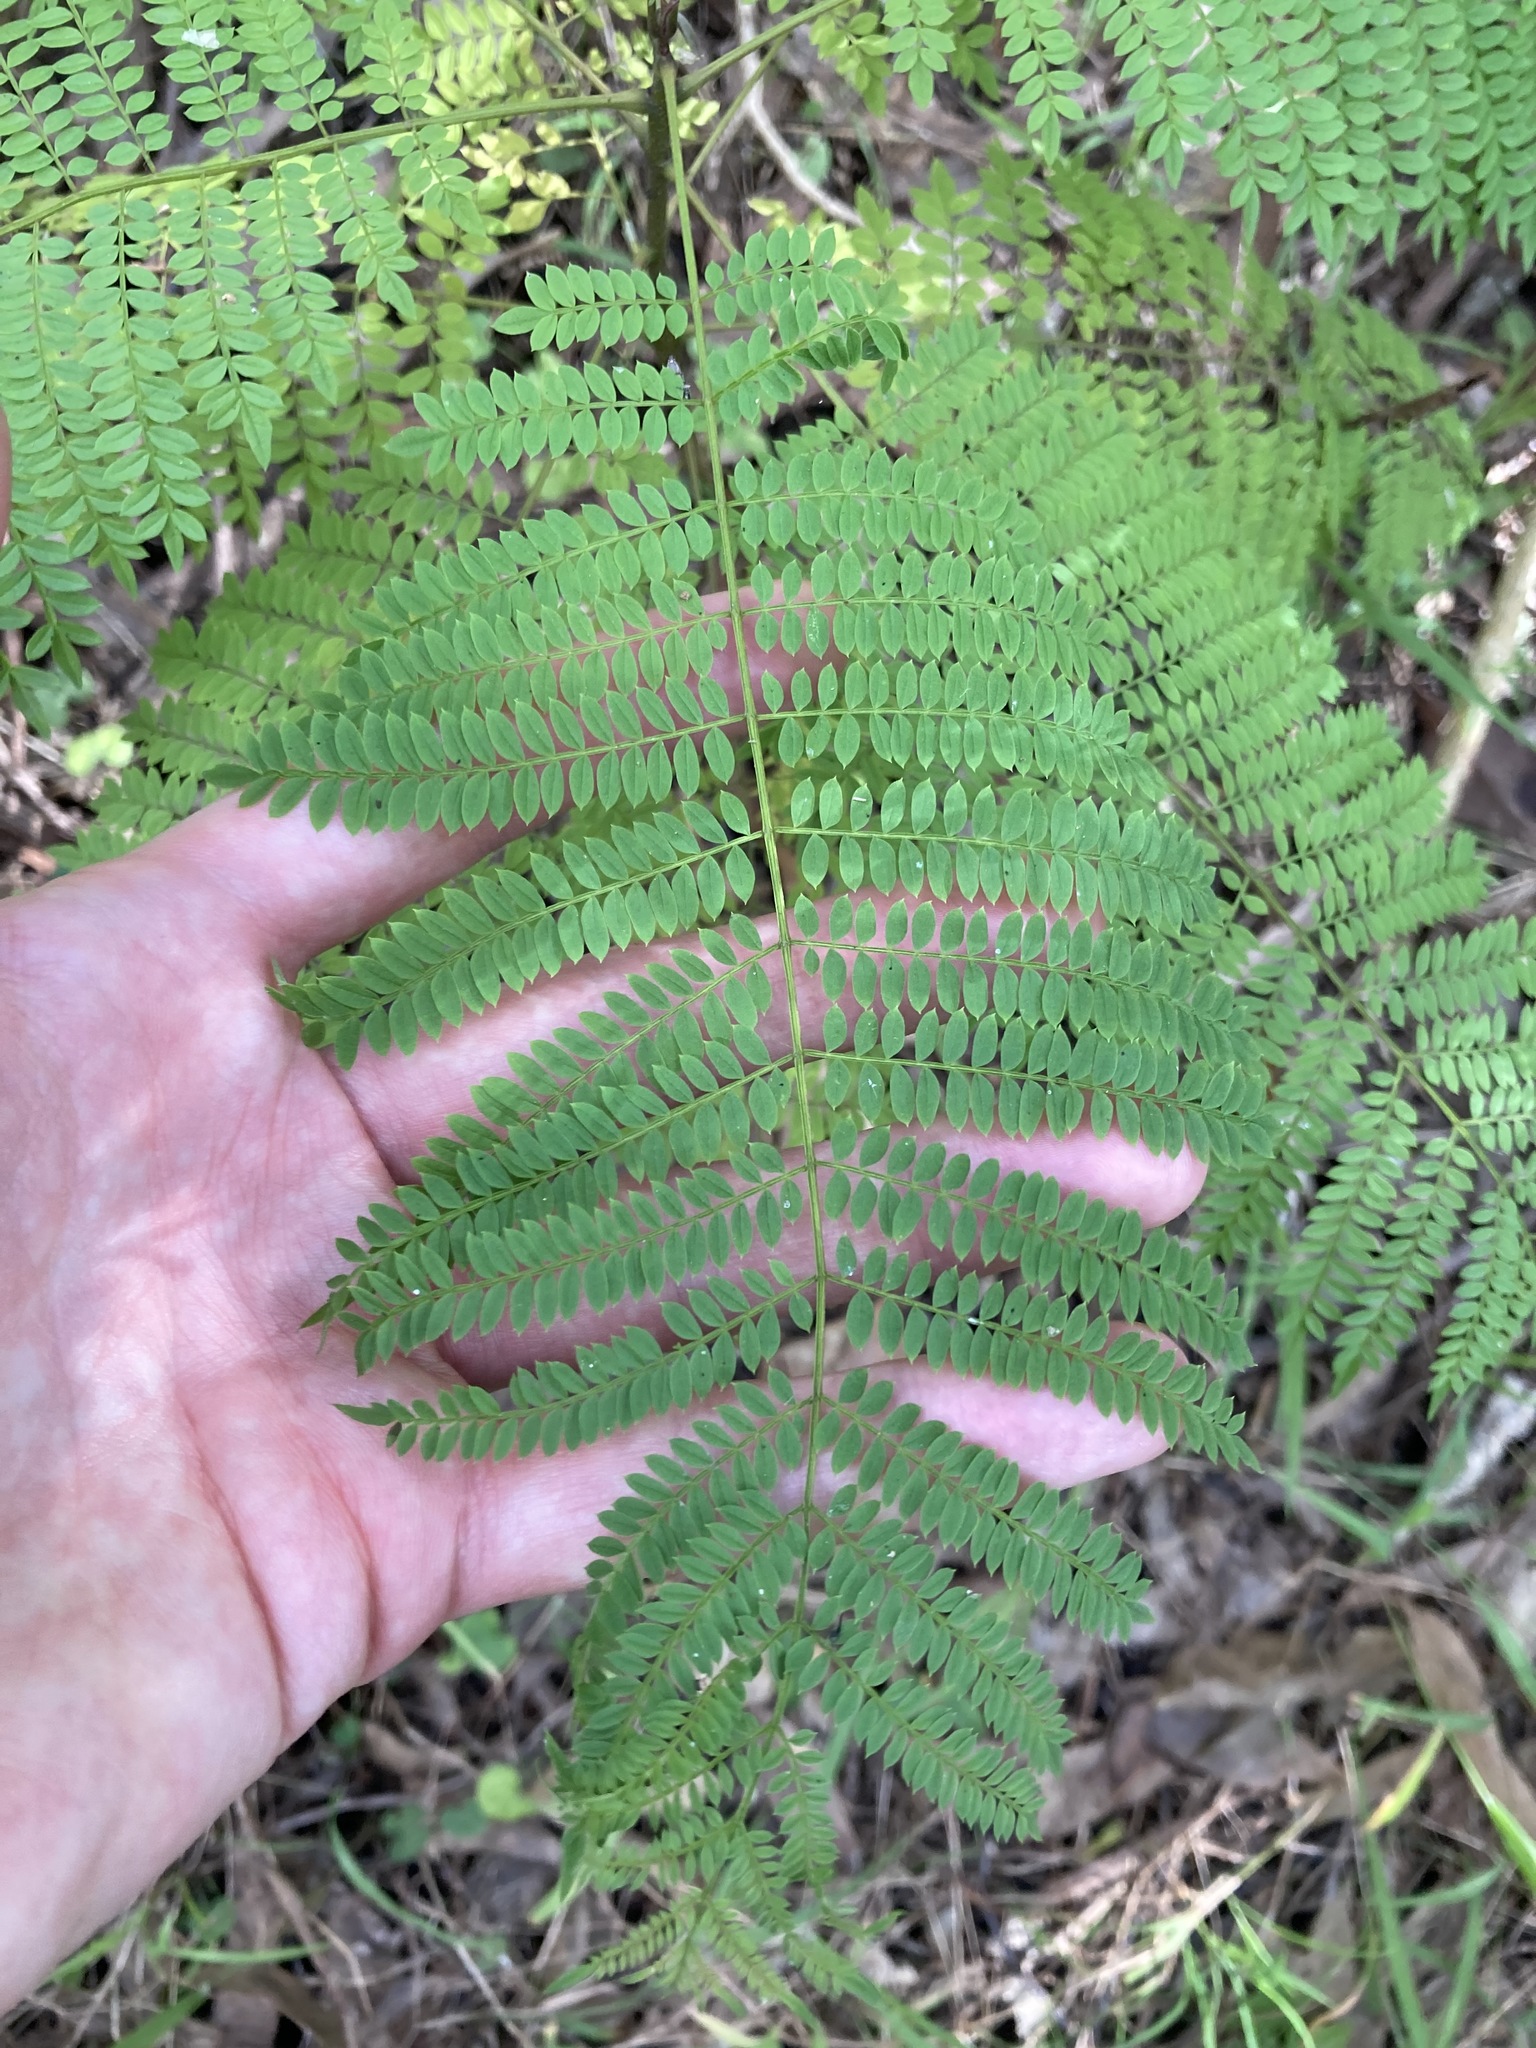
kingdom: Plantae
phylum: Tracheophyta
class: Magnoliopsida
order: Lamiales
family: Bignoniaceae
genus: Jacaranda
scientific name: Jacaranda mimosifolia
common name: Black poui
